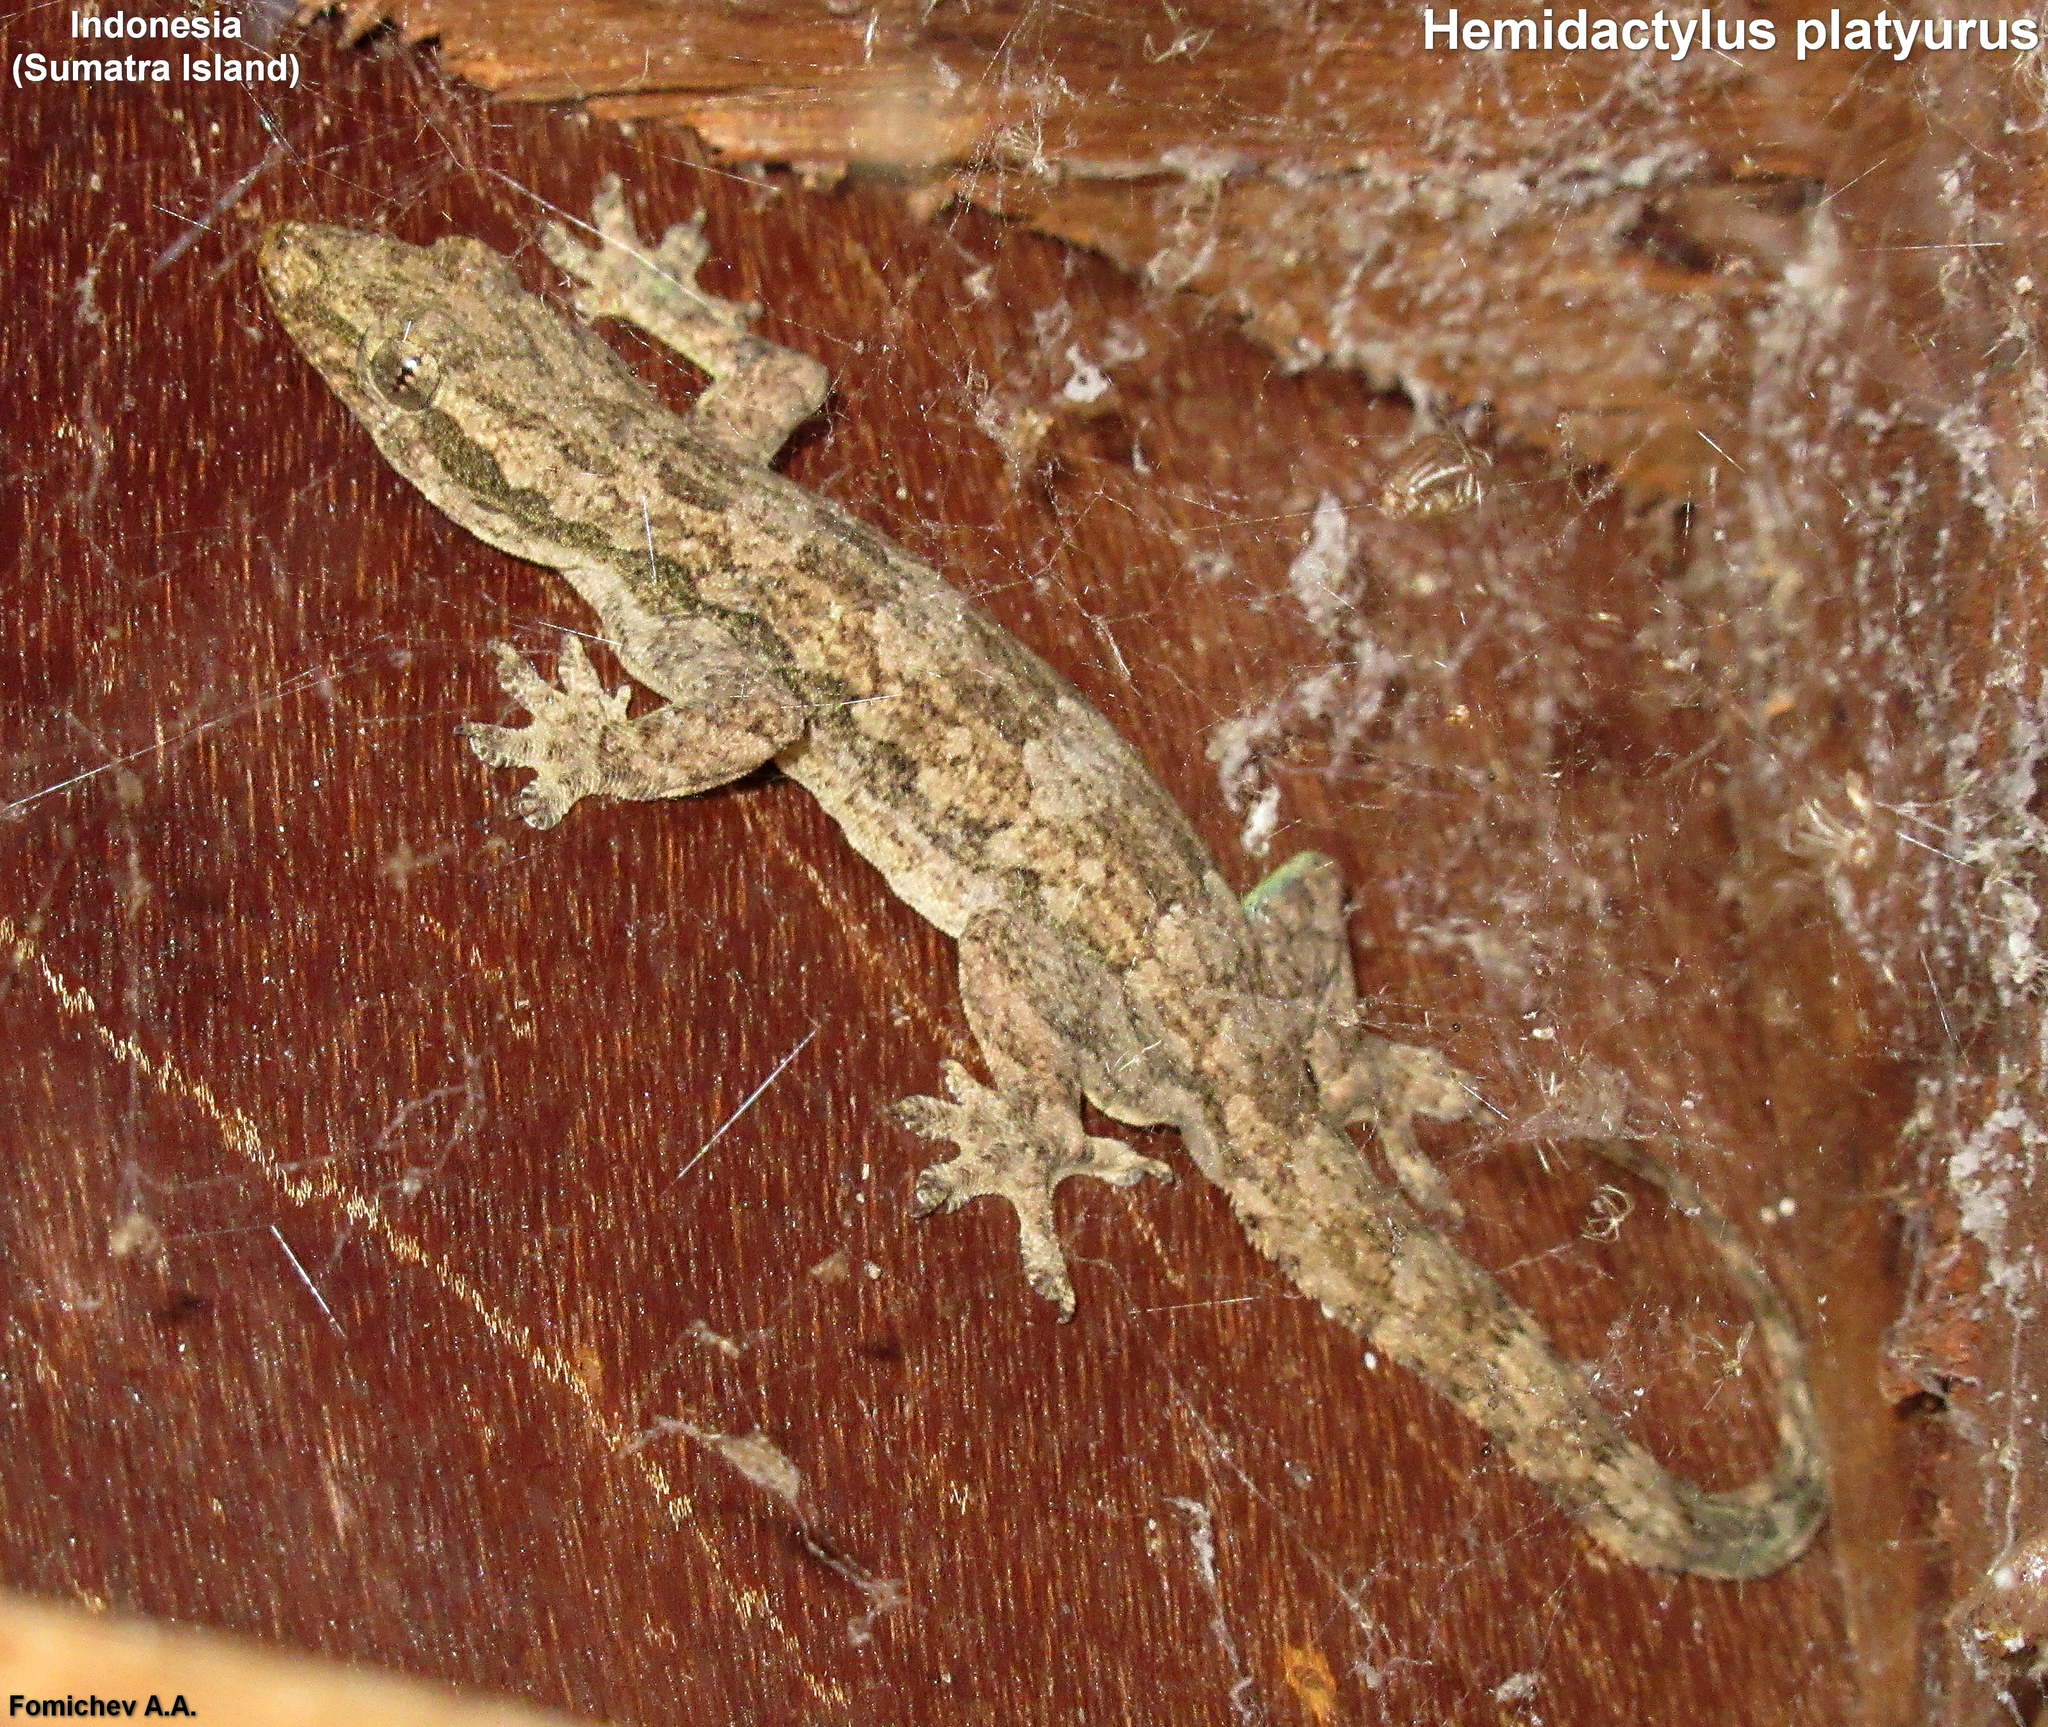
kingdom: Animalia
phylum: Chordata
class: Squamata
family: Gekkonidae
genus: Hemidactylus
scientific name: Hemidactylus platyurus
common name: Flat-tailed house gecko
